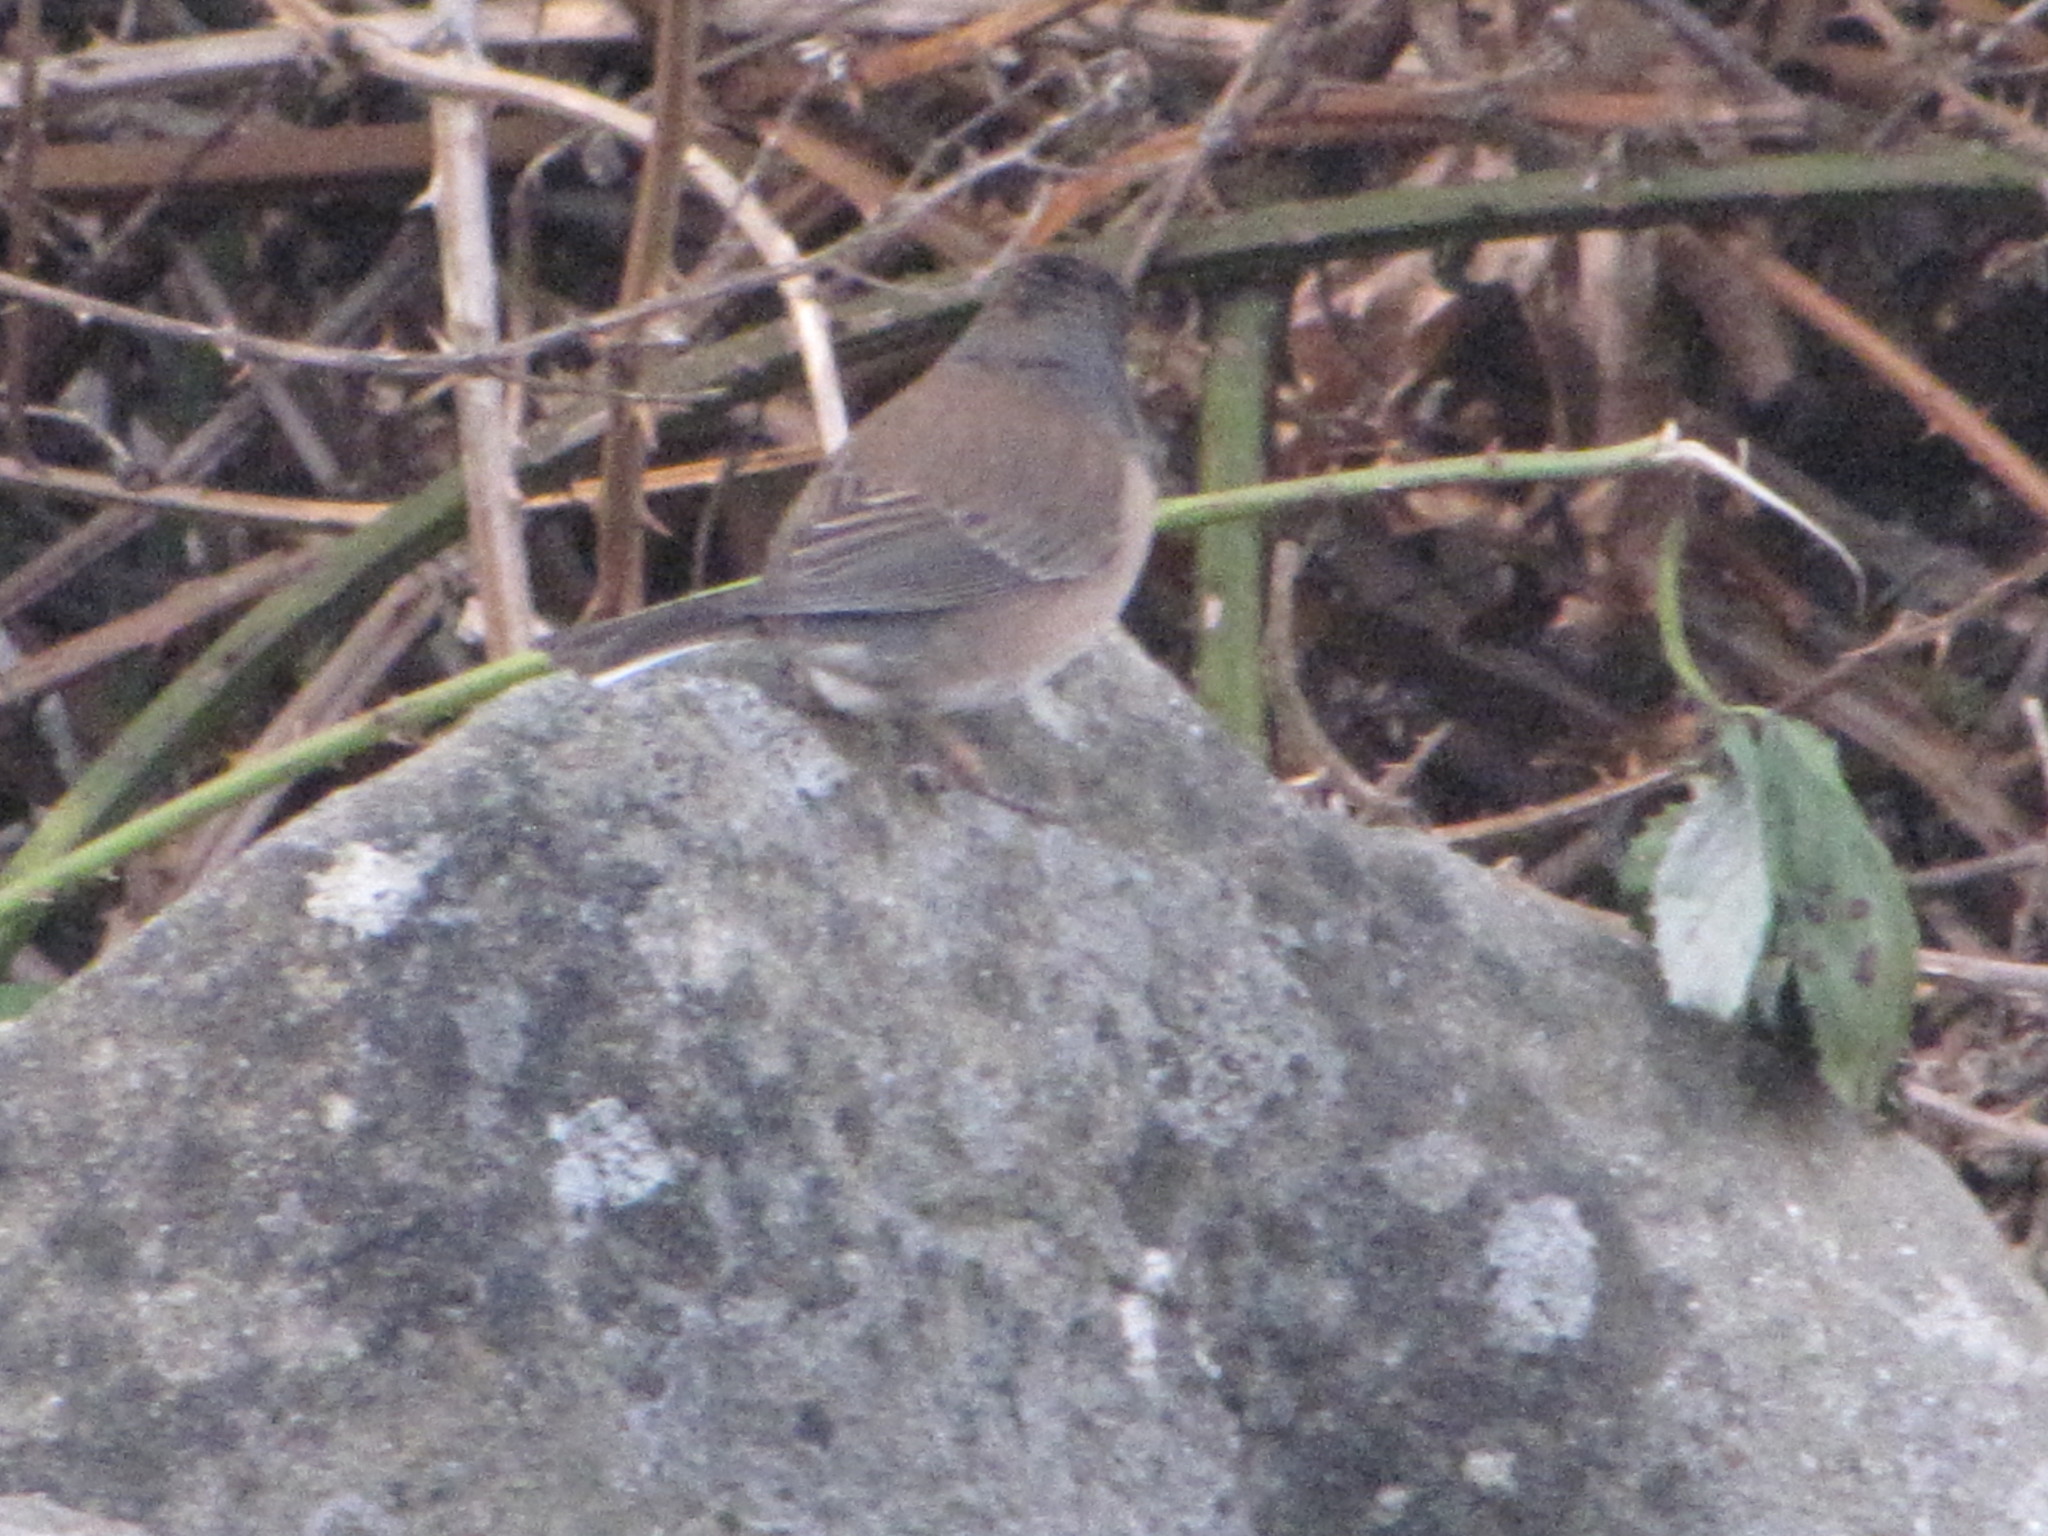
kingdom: Animalia
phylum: Chordata
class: Aves
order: Passeriformes
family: Passerellidae
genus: Junco
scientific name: Junco hyemalis
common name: Dark-eyed junco
